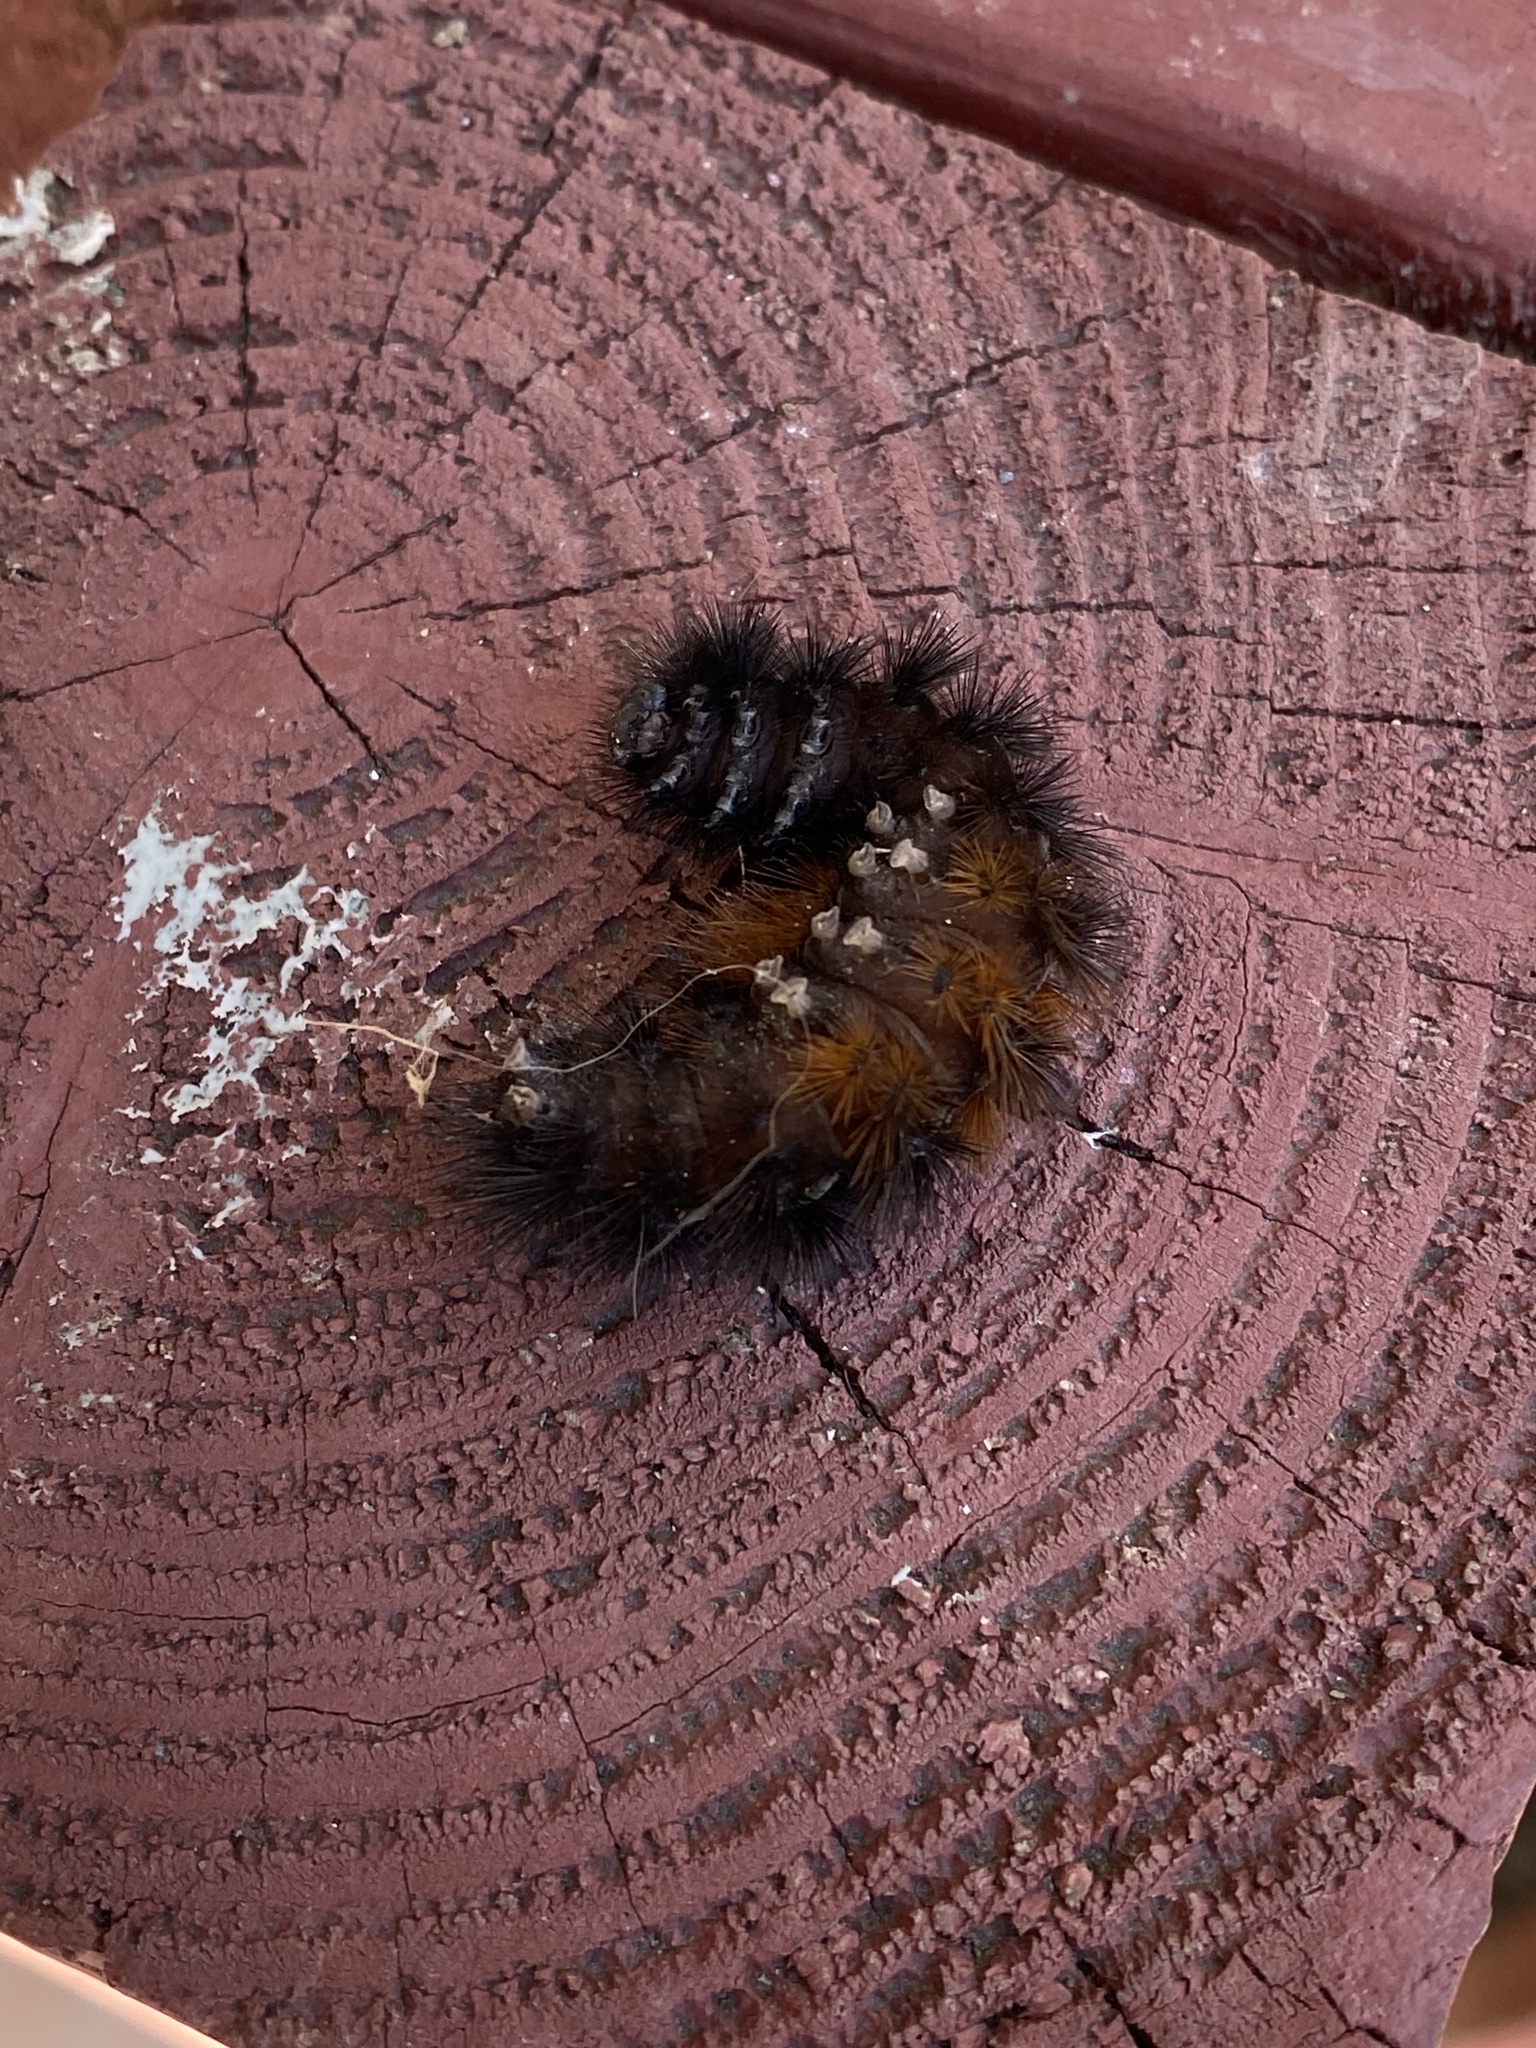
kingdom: Animalia
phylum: Arthropoda
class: Insecta
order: Lepidoptera
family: Erebidae
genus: Pyrrharctia
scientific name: Pyrrharctia isabella
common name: Isabella tiger moth
